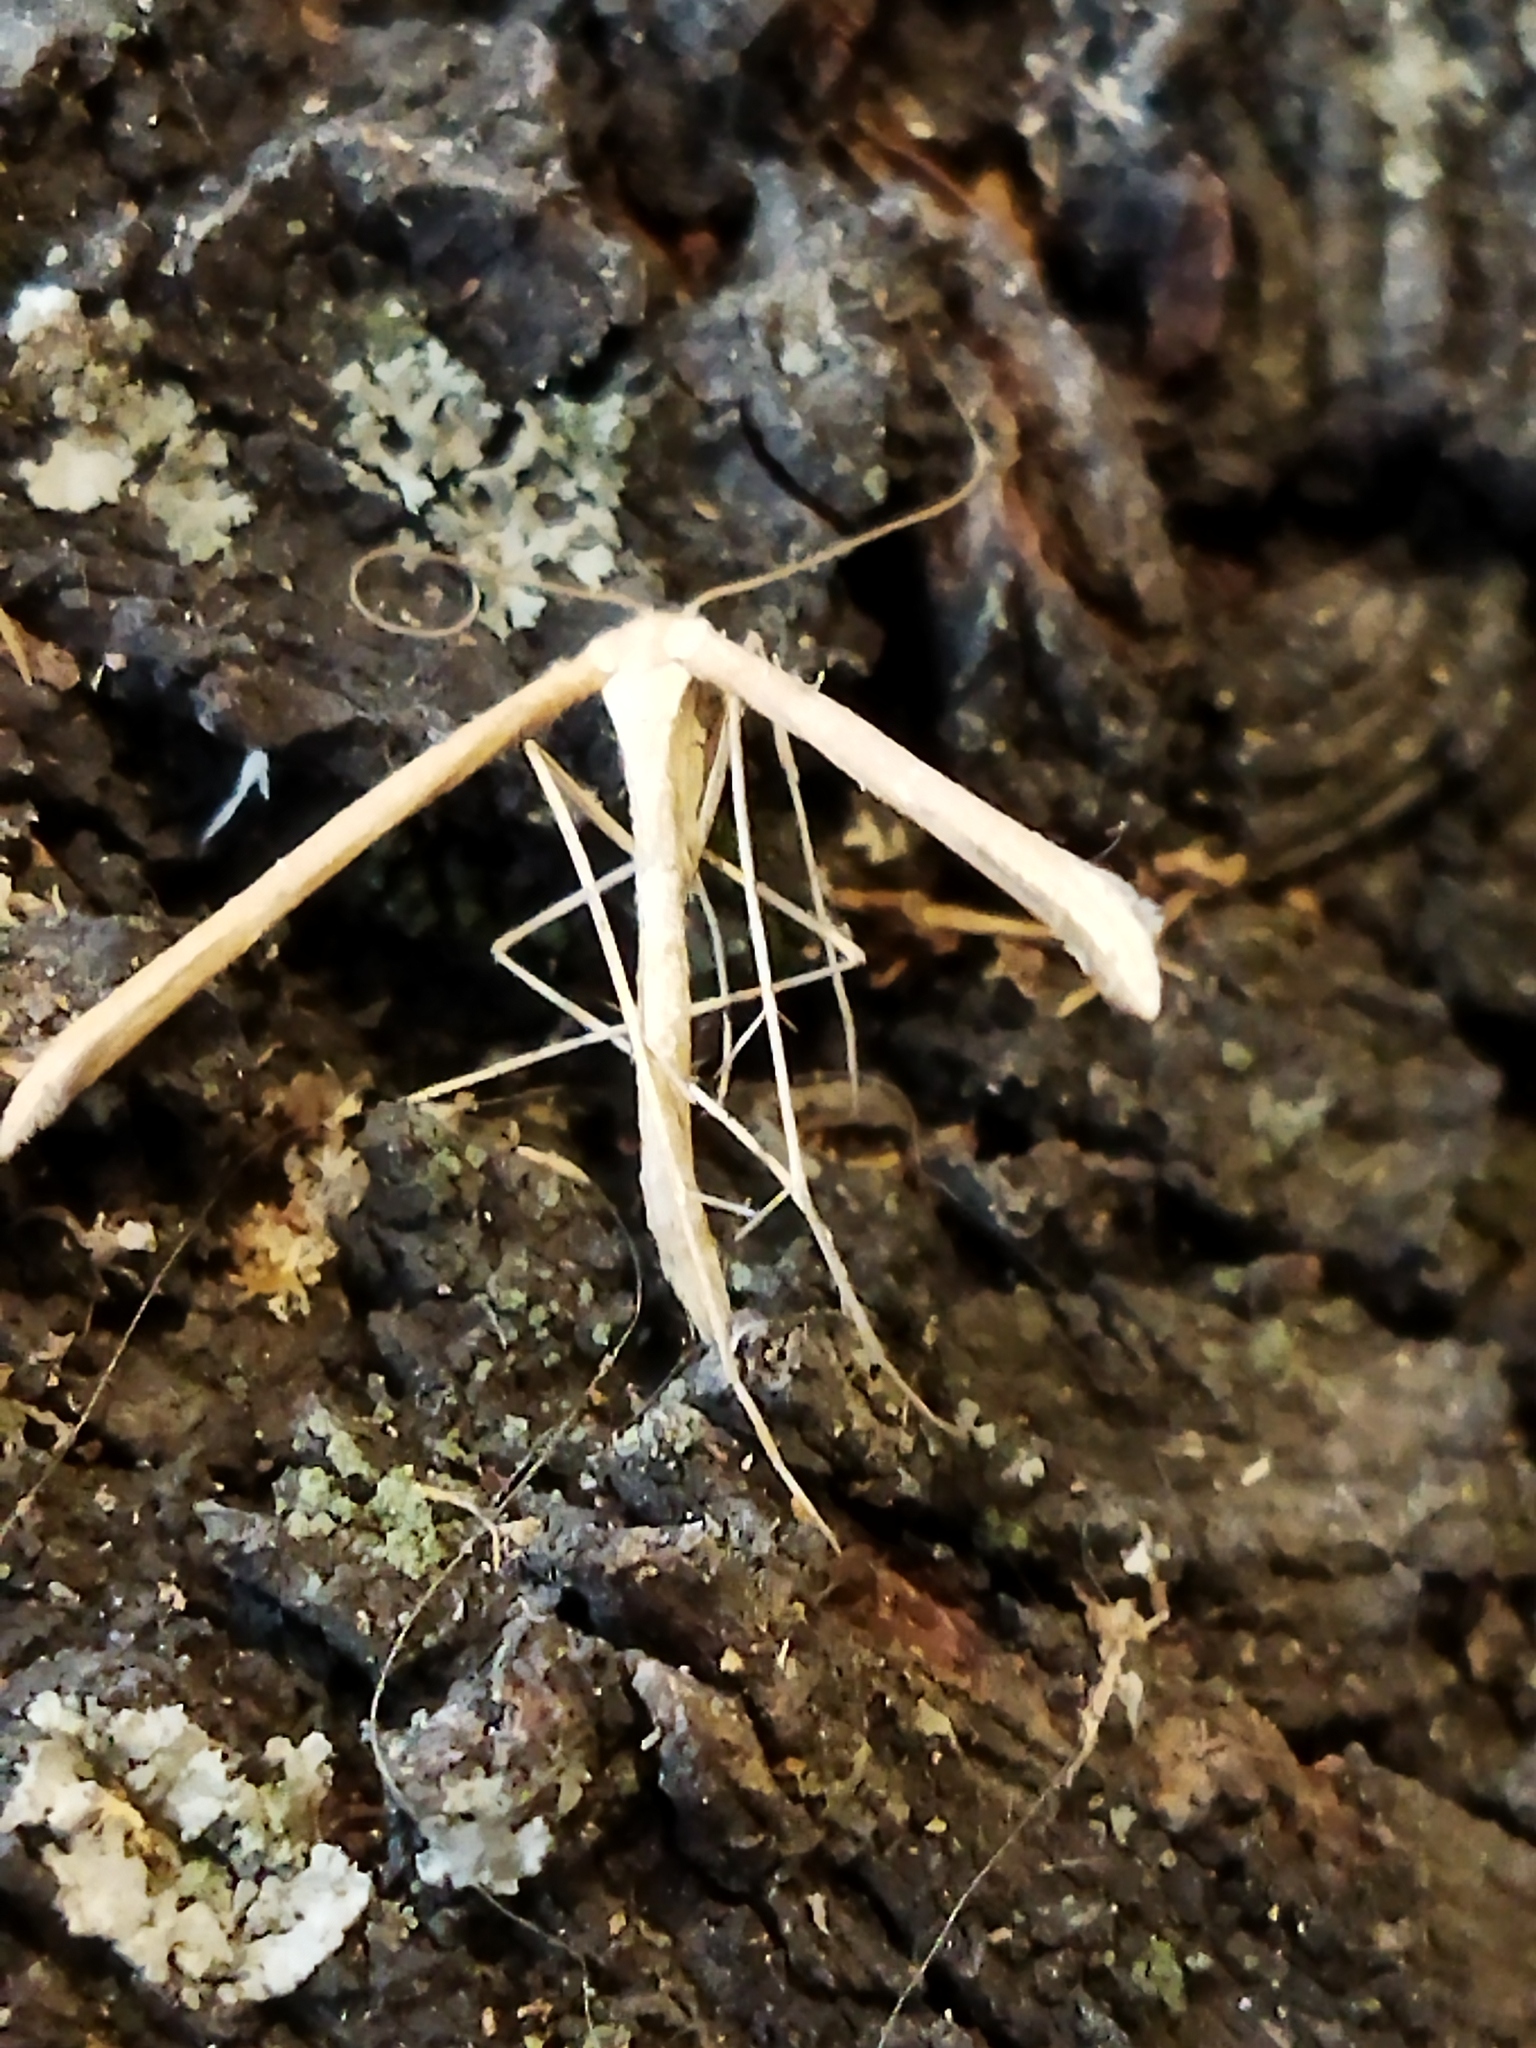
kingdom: Animalia
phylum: Arthropoda
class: Insecta
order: Lepidoptera
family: Pterophoridae
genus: Emmelina
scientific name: Emmelina monodactyla
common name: Common plume
